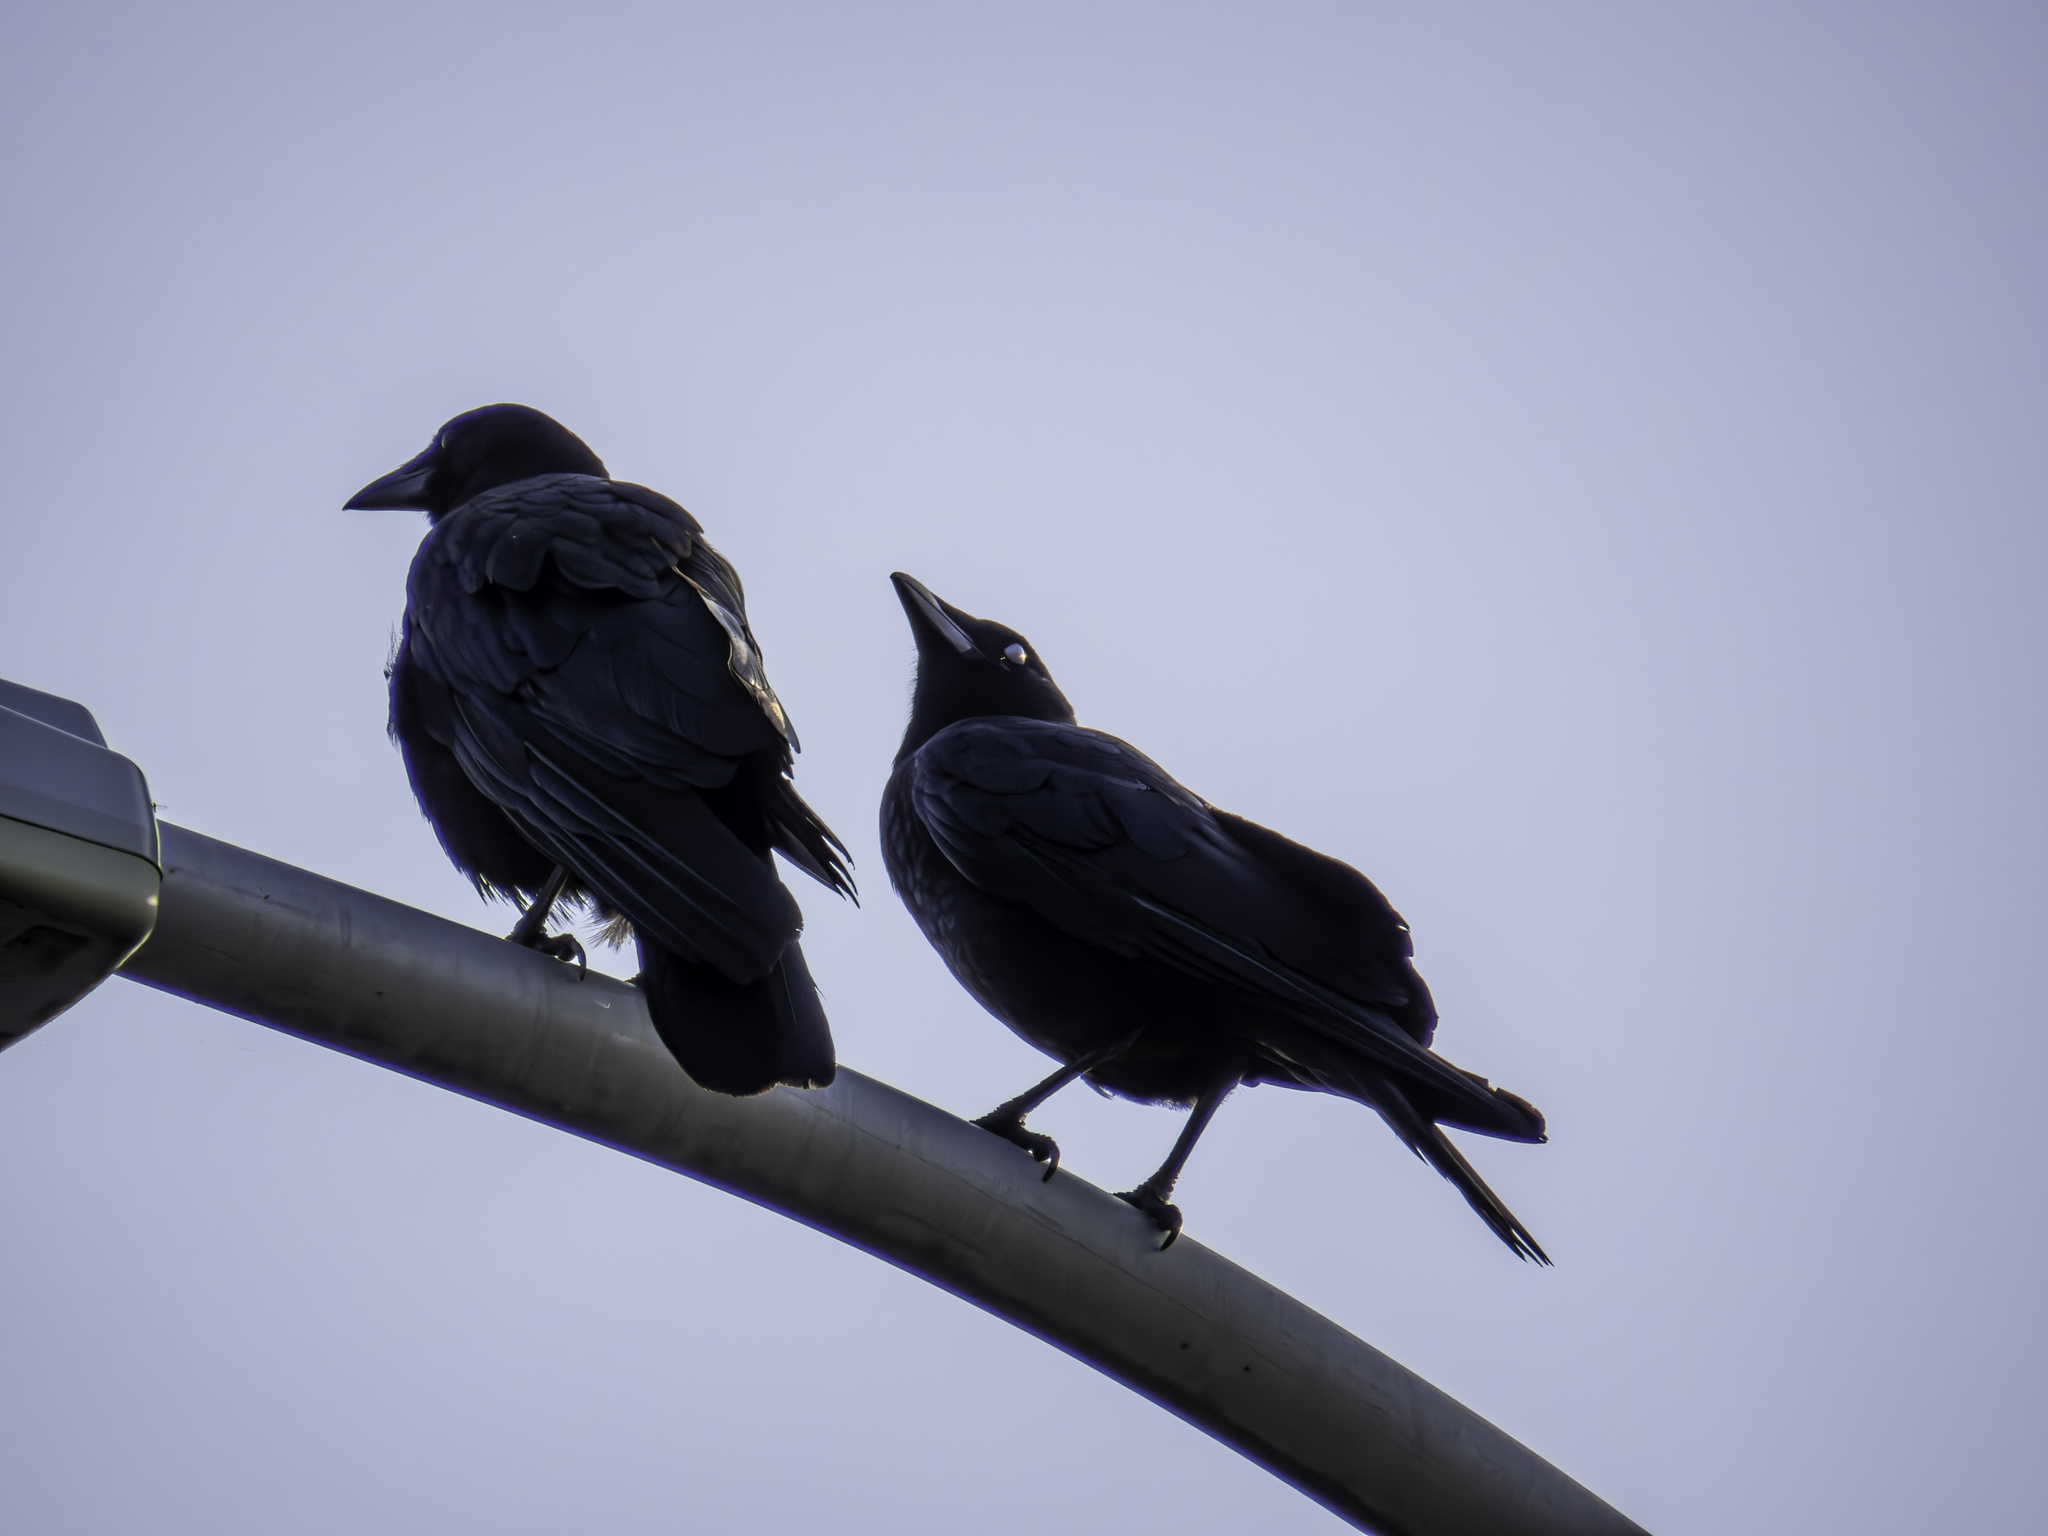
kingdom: Animalia
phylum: Chordata
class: Aves
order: Passeriformes
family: Corvidae
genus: Corvus
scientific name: Corvus brachyrhynchos
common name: American crow
